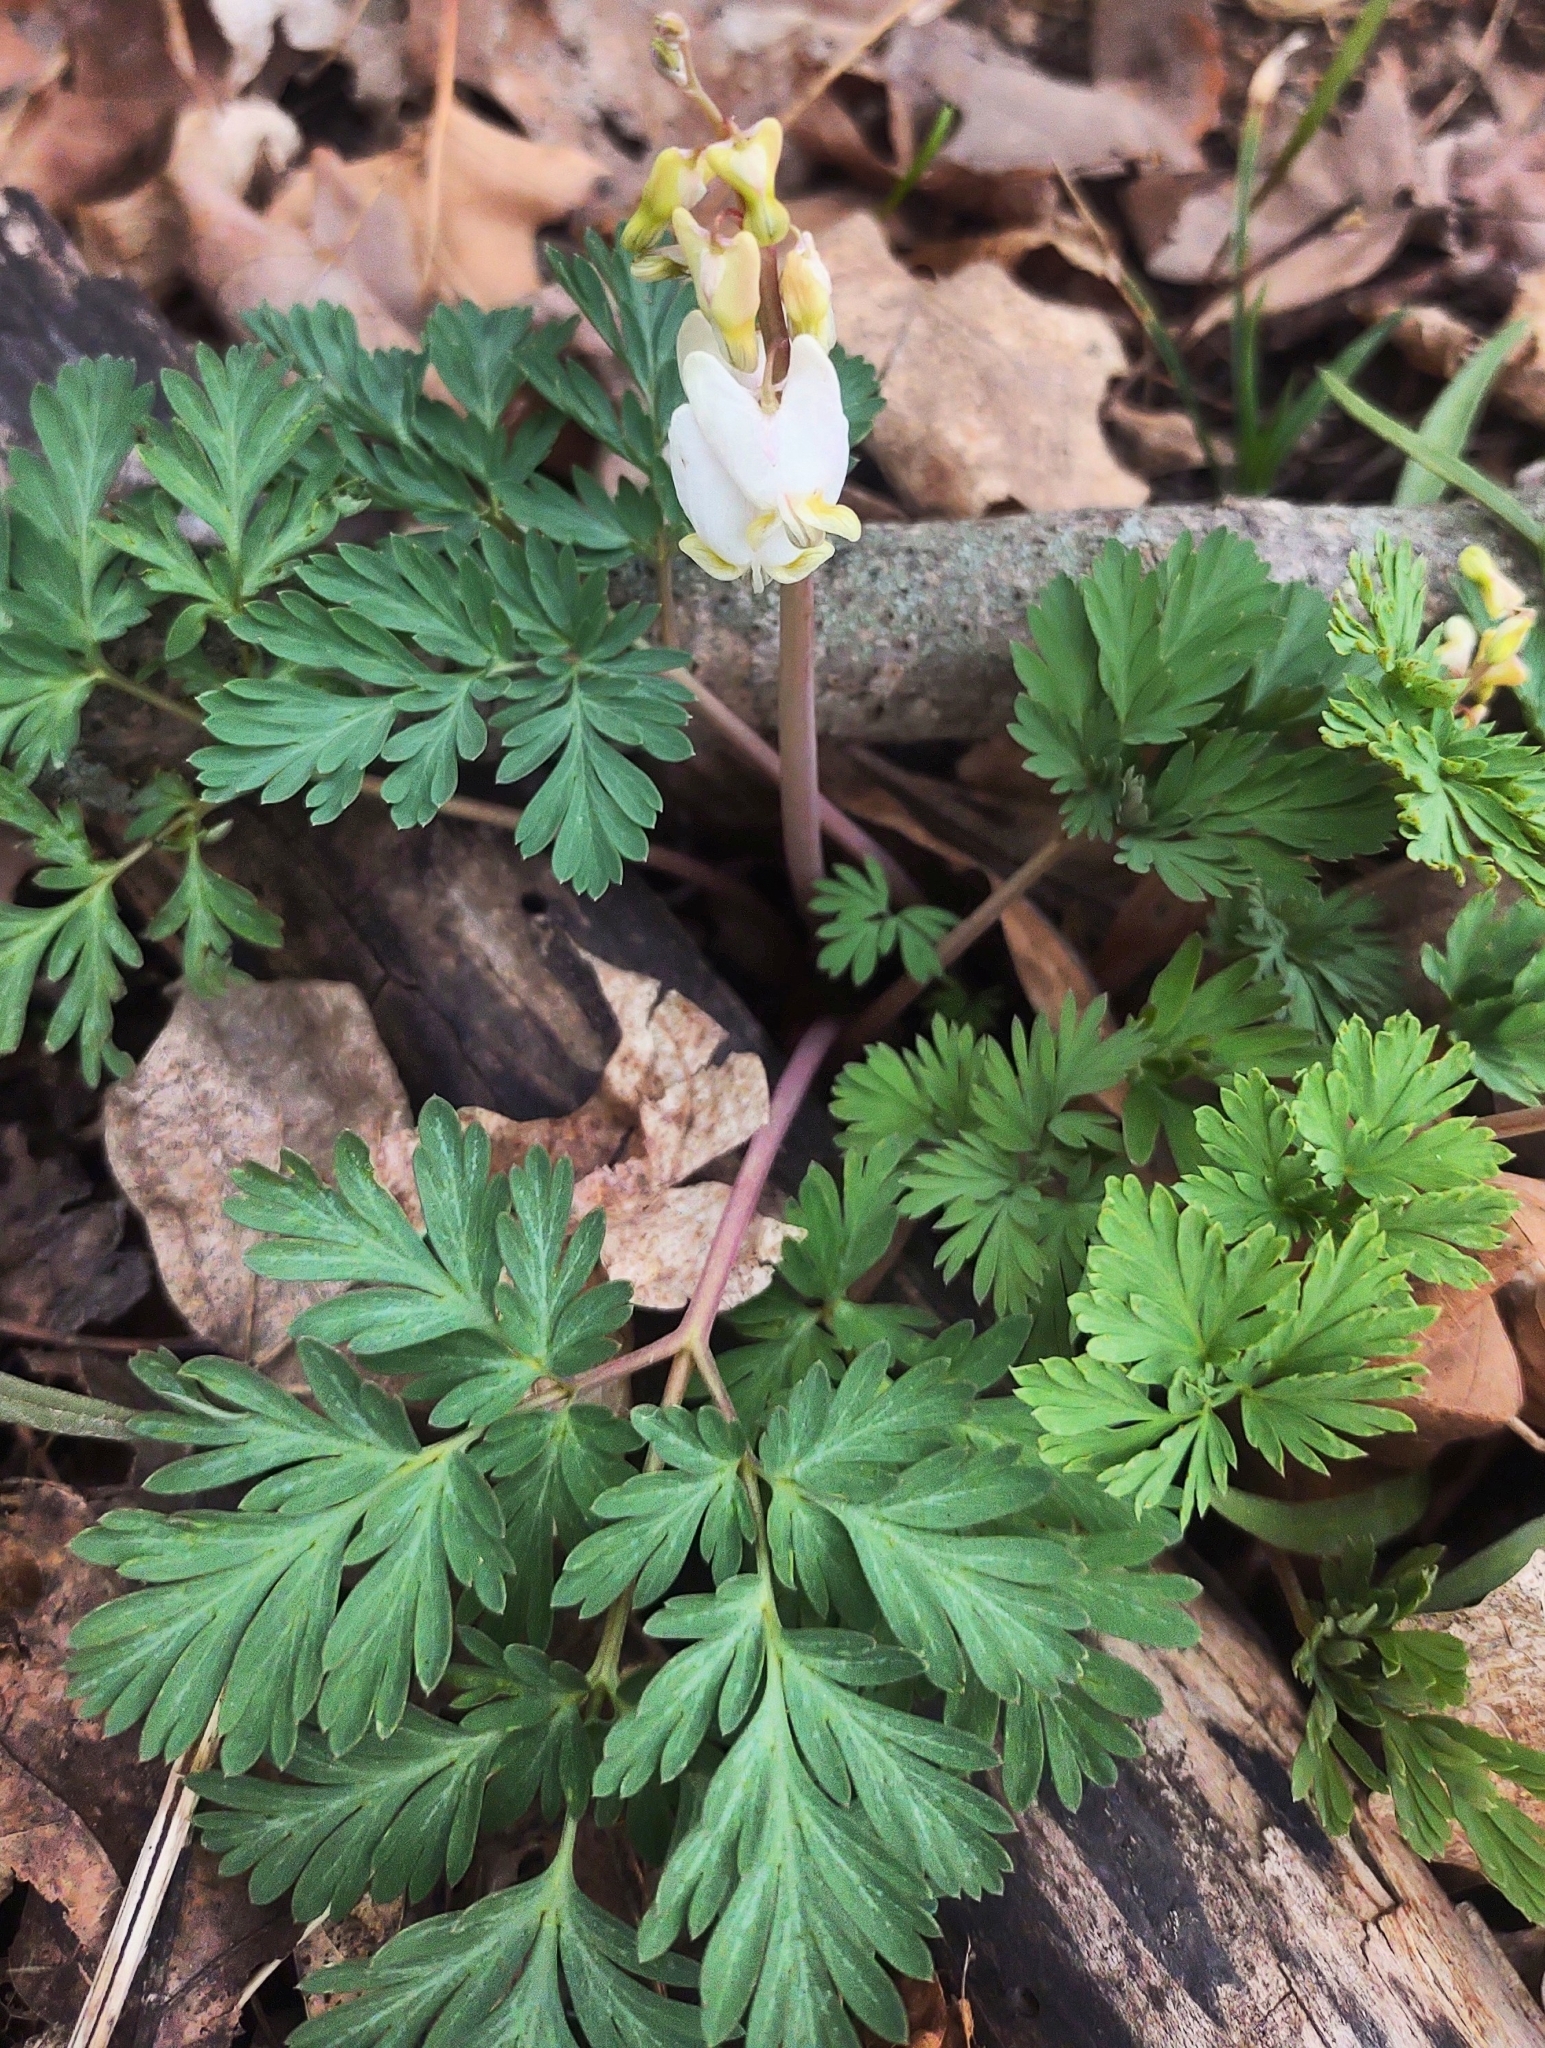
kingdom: Plantae
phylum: Tracheophyta
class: Magnoliopsida
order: Ranunculales
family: Papaveraceae
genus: Dicentra
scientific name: Dicentra cucullaria
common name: Dutchman's breeches
